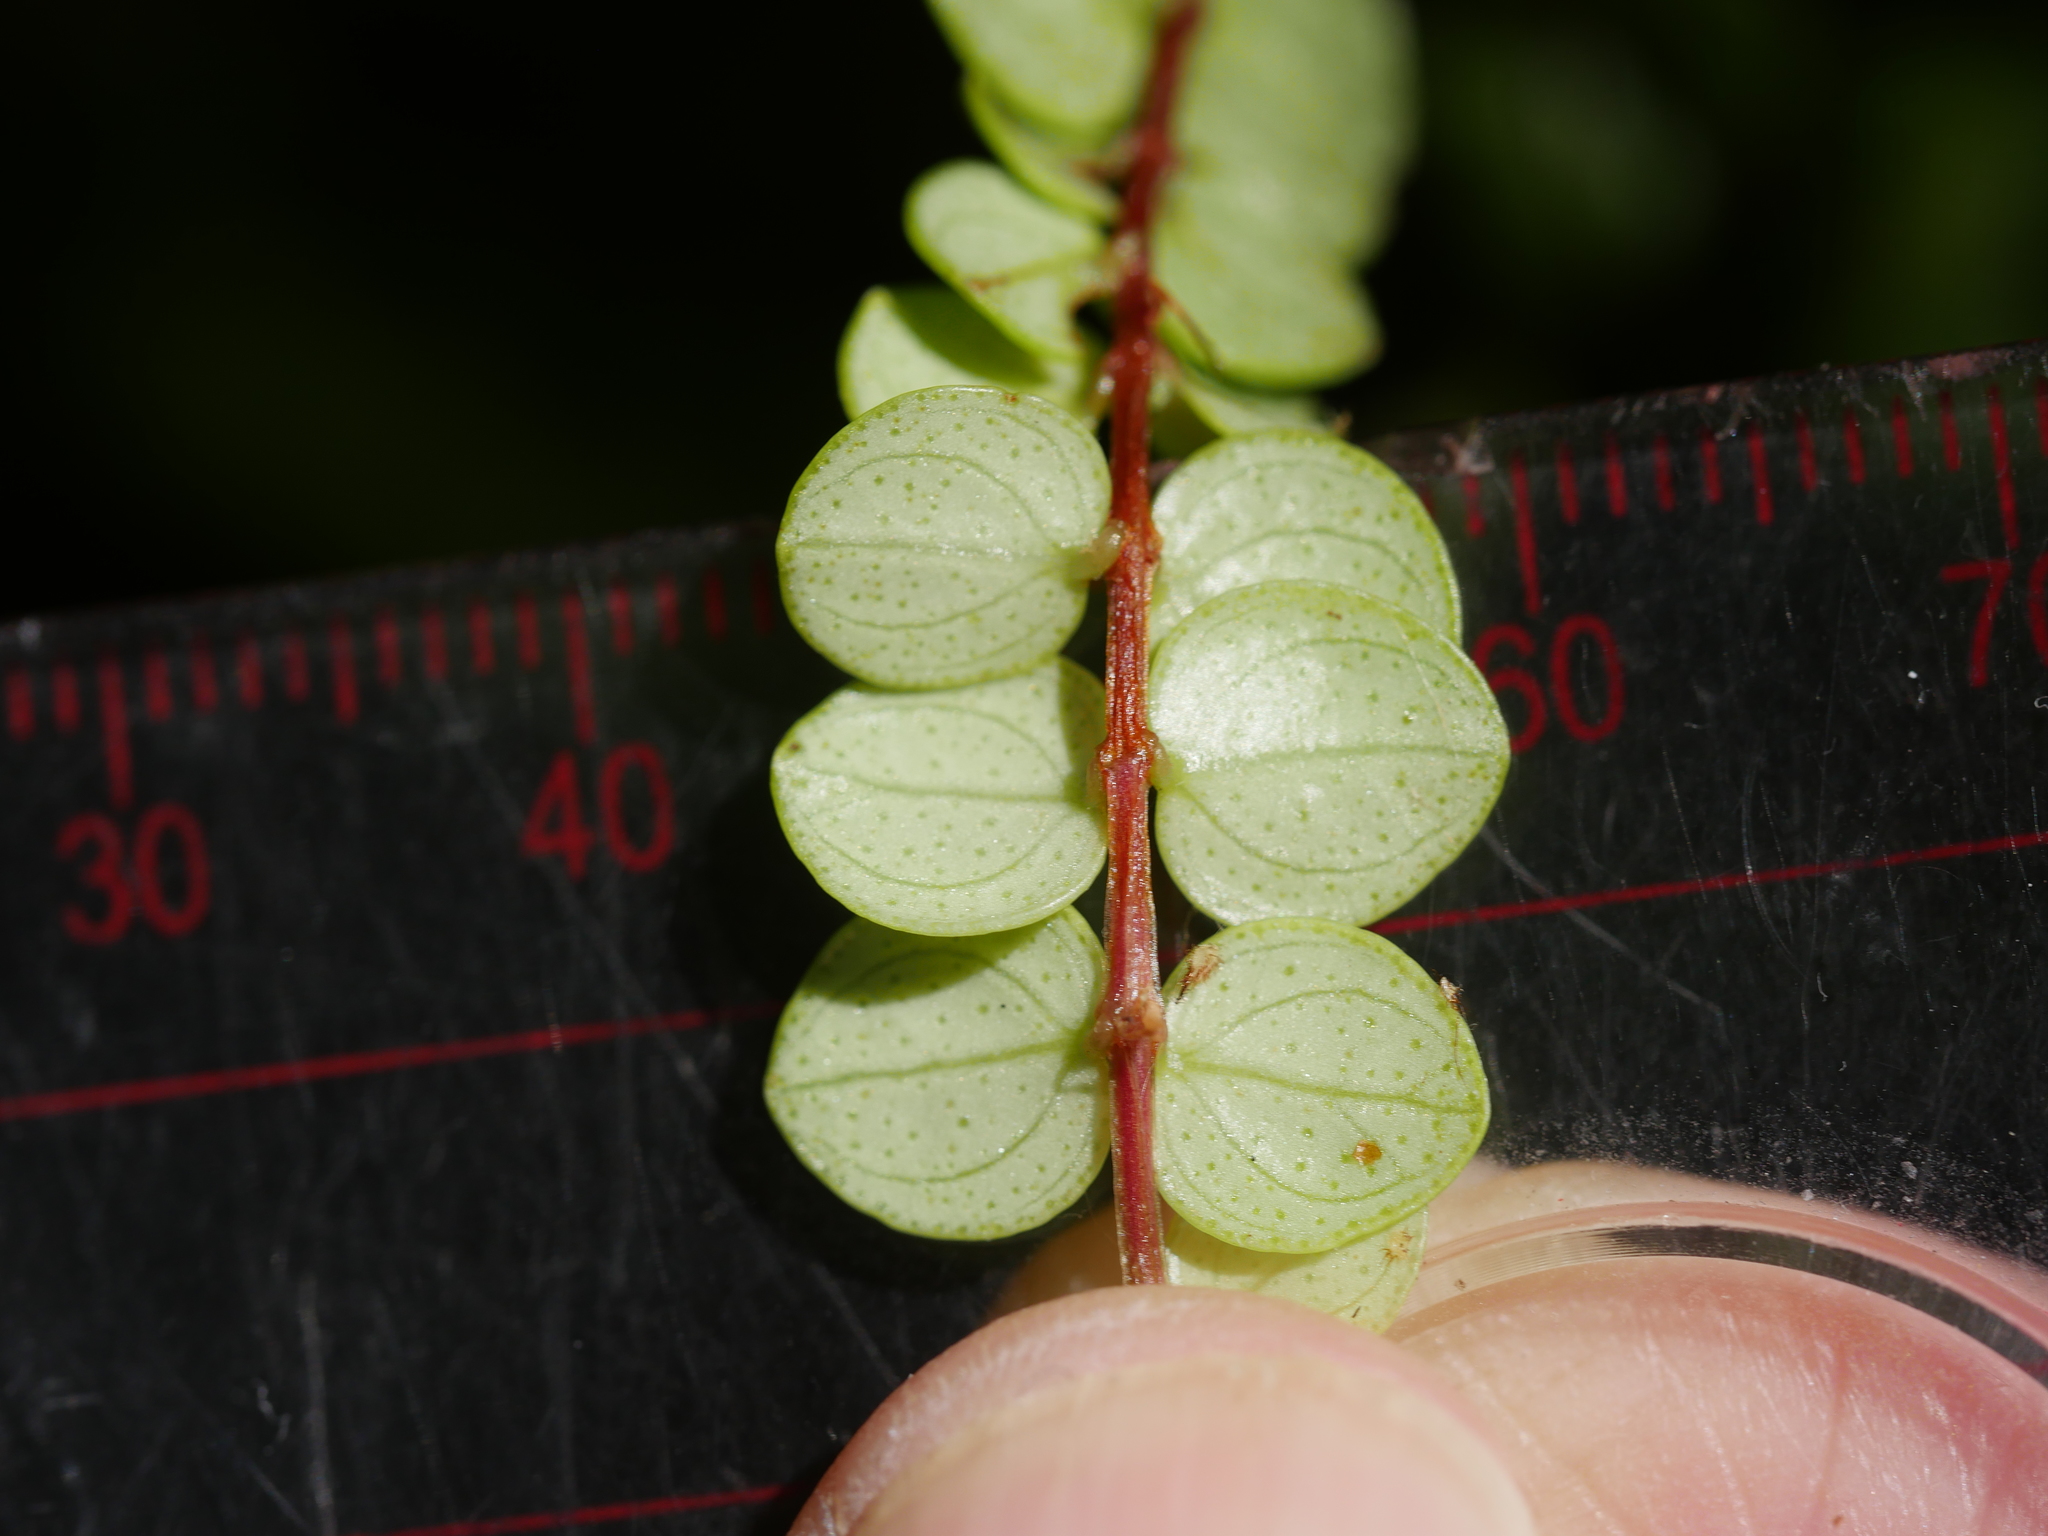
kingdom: Plantae
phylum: Tracheophyta
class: Magnoliopsida
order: Myrtales
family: Myrtaceae
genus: Metrosideros
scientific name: Metrosideros perforata
